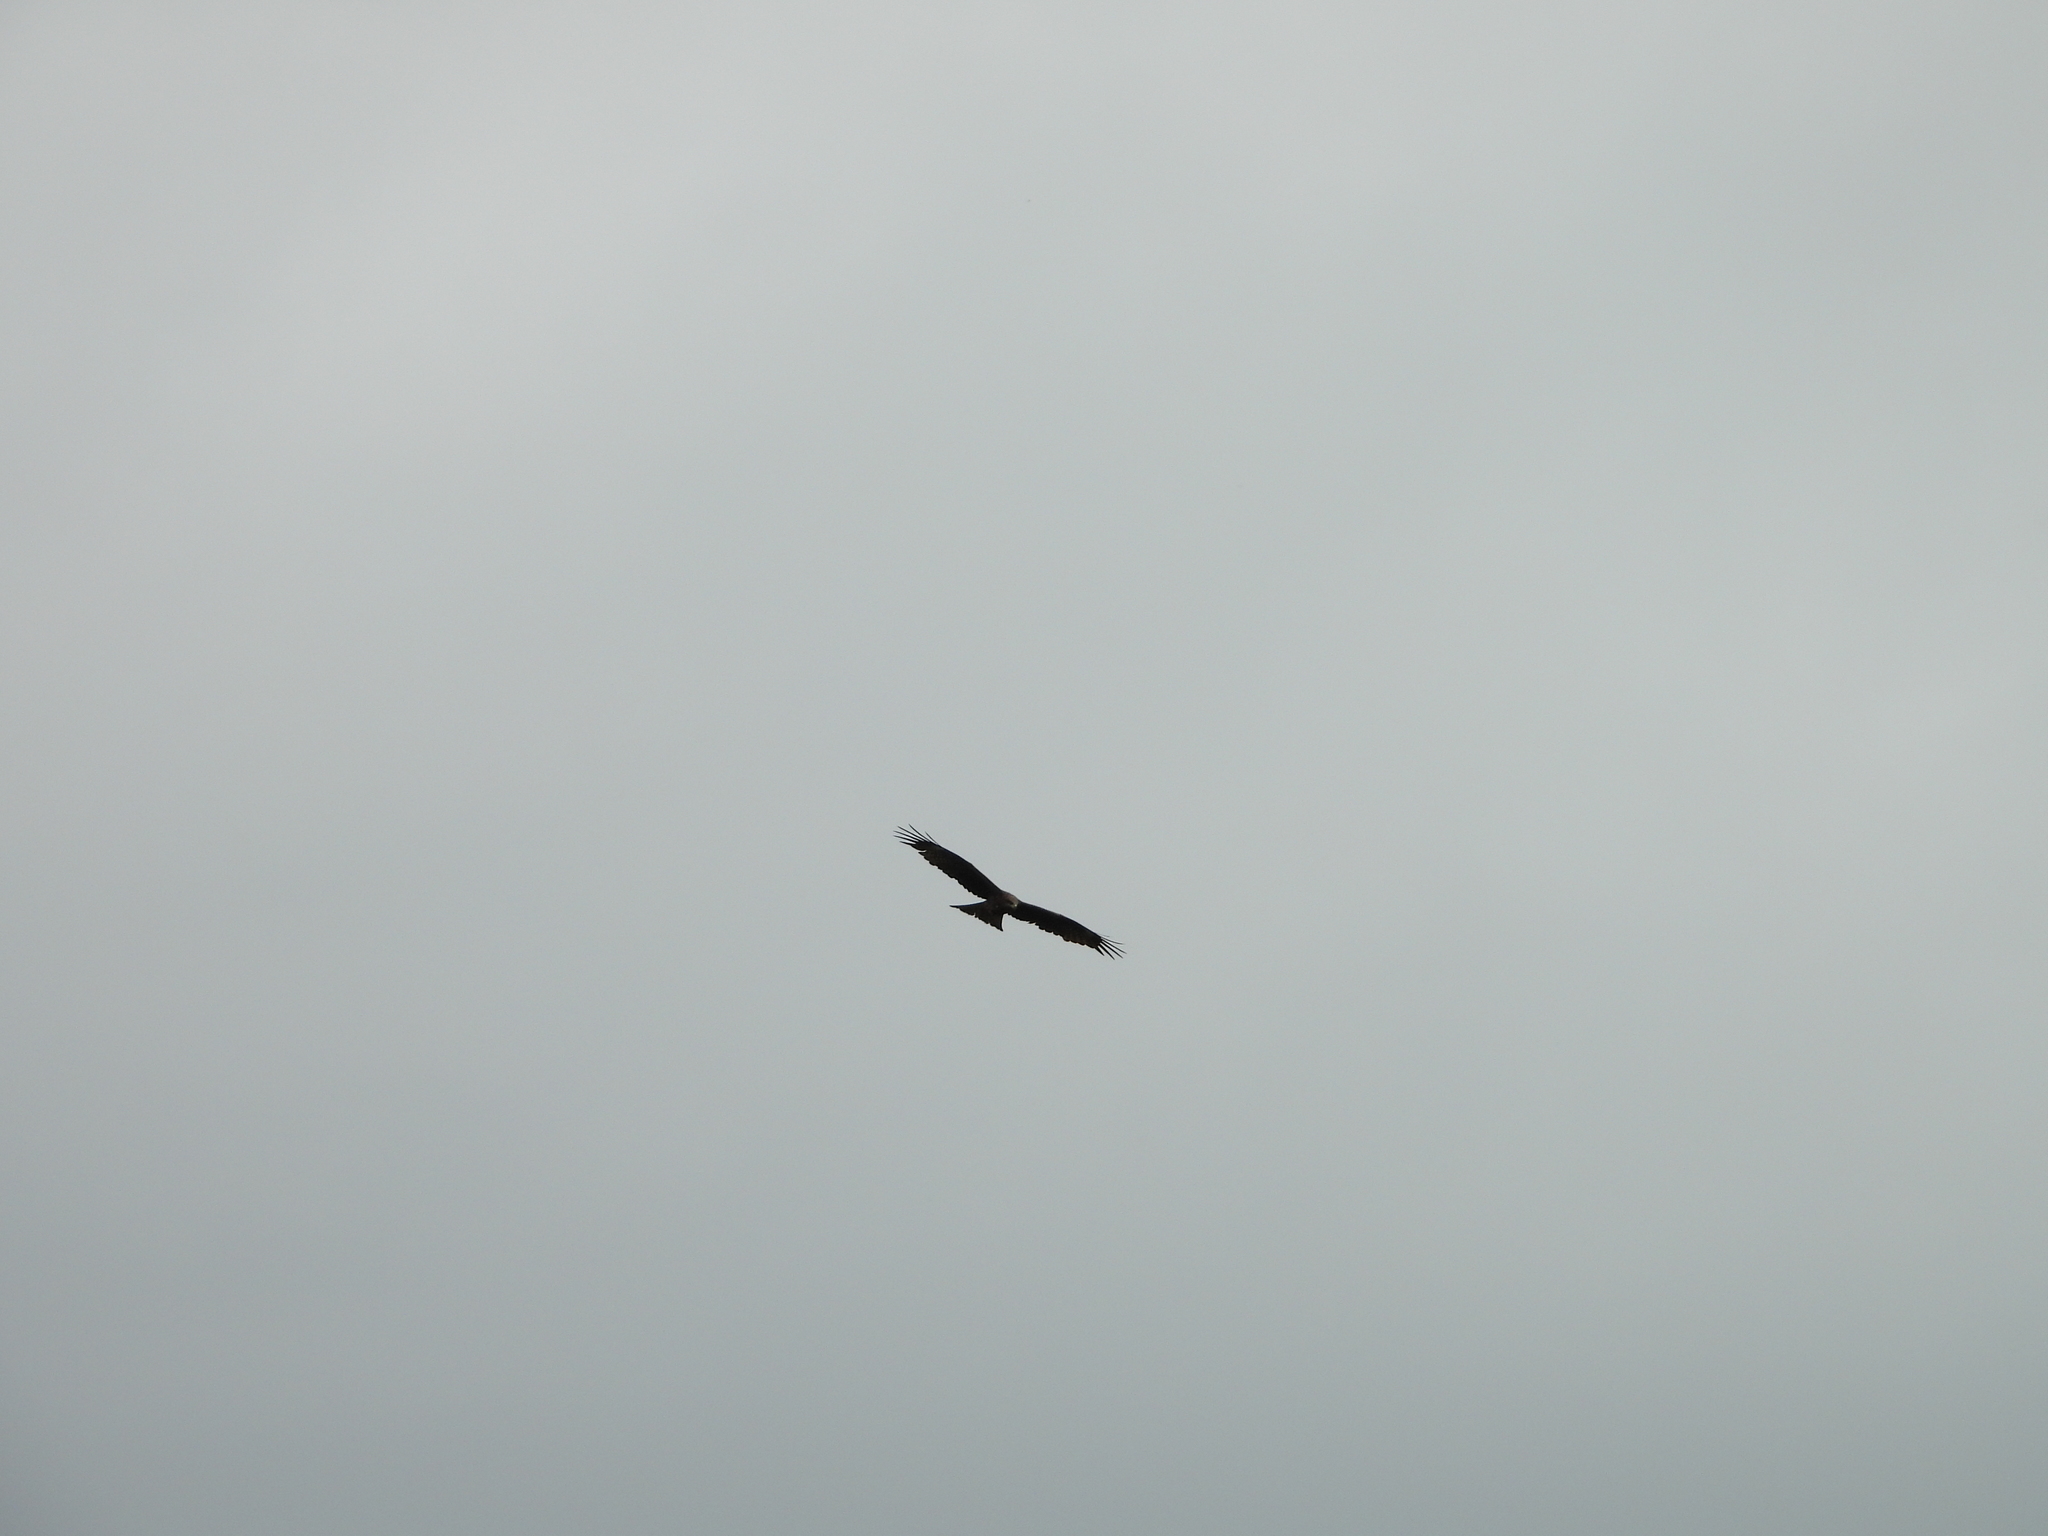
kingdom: Animalia
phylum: Chordata
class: Aves
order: Accipitriformes
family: Accipitridae
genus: Milvus
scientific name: Milvus migrans
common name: Black kite
